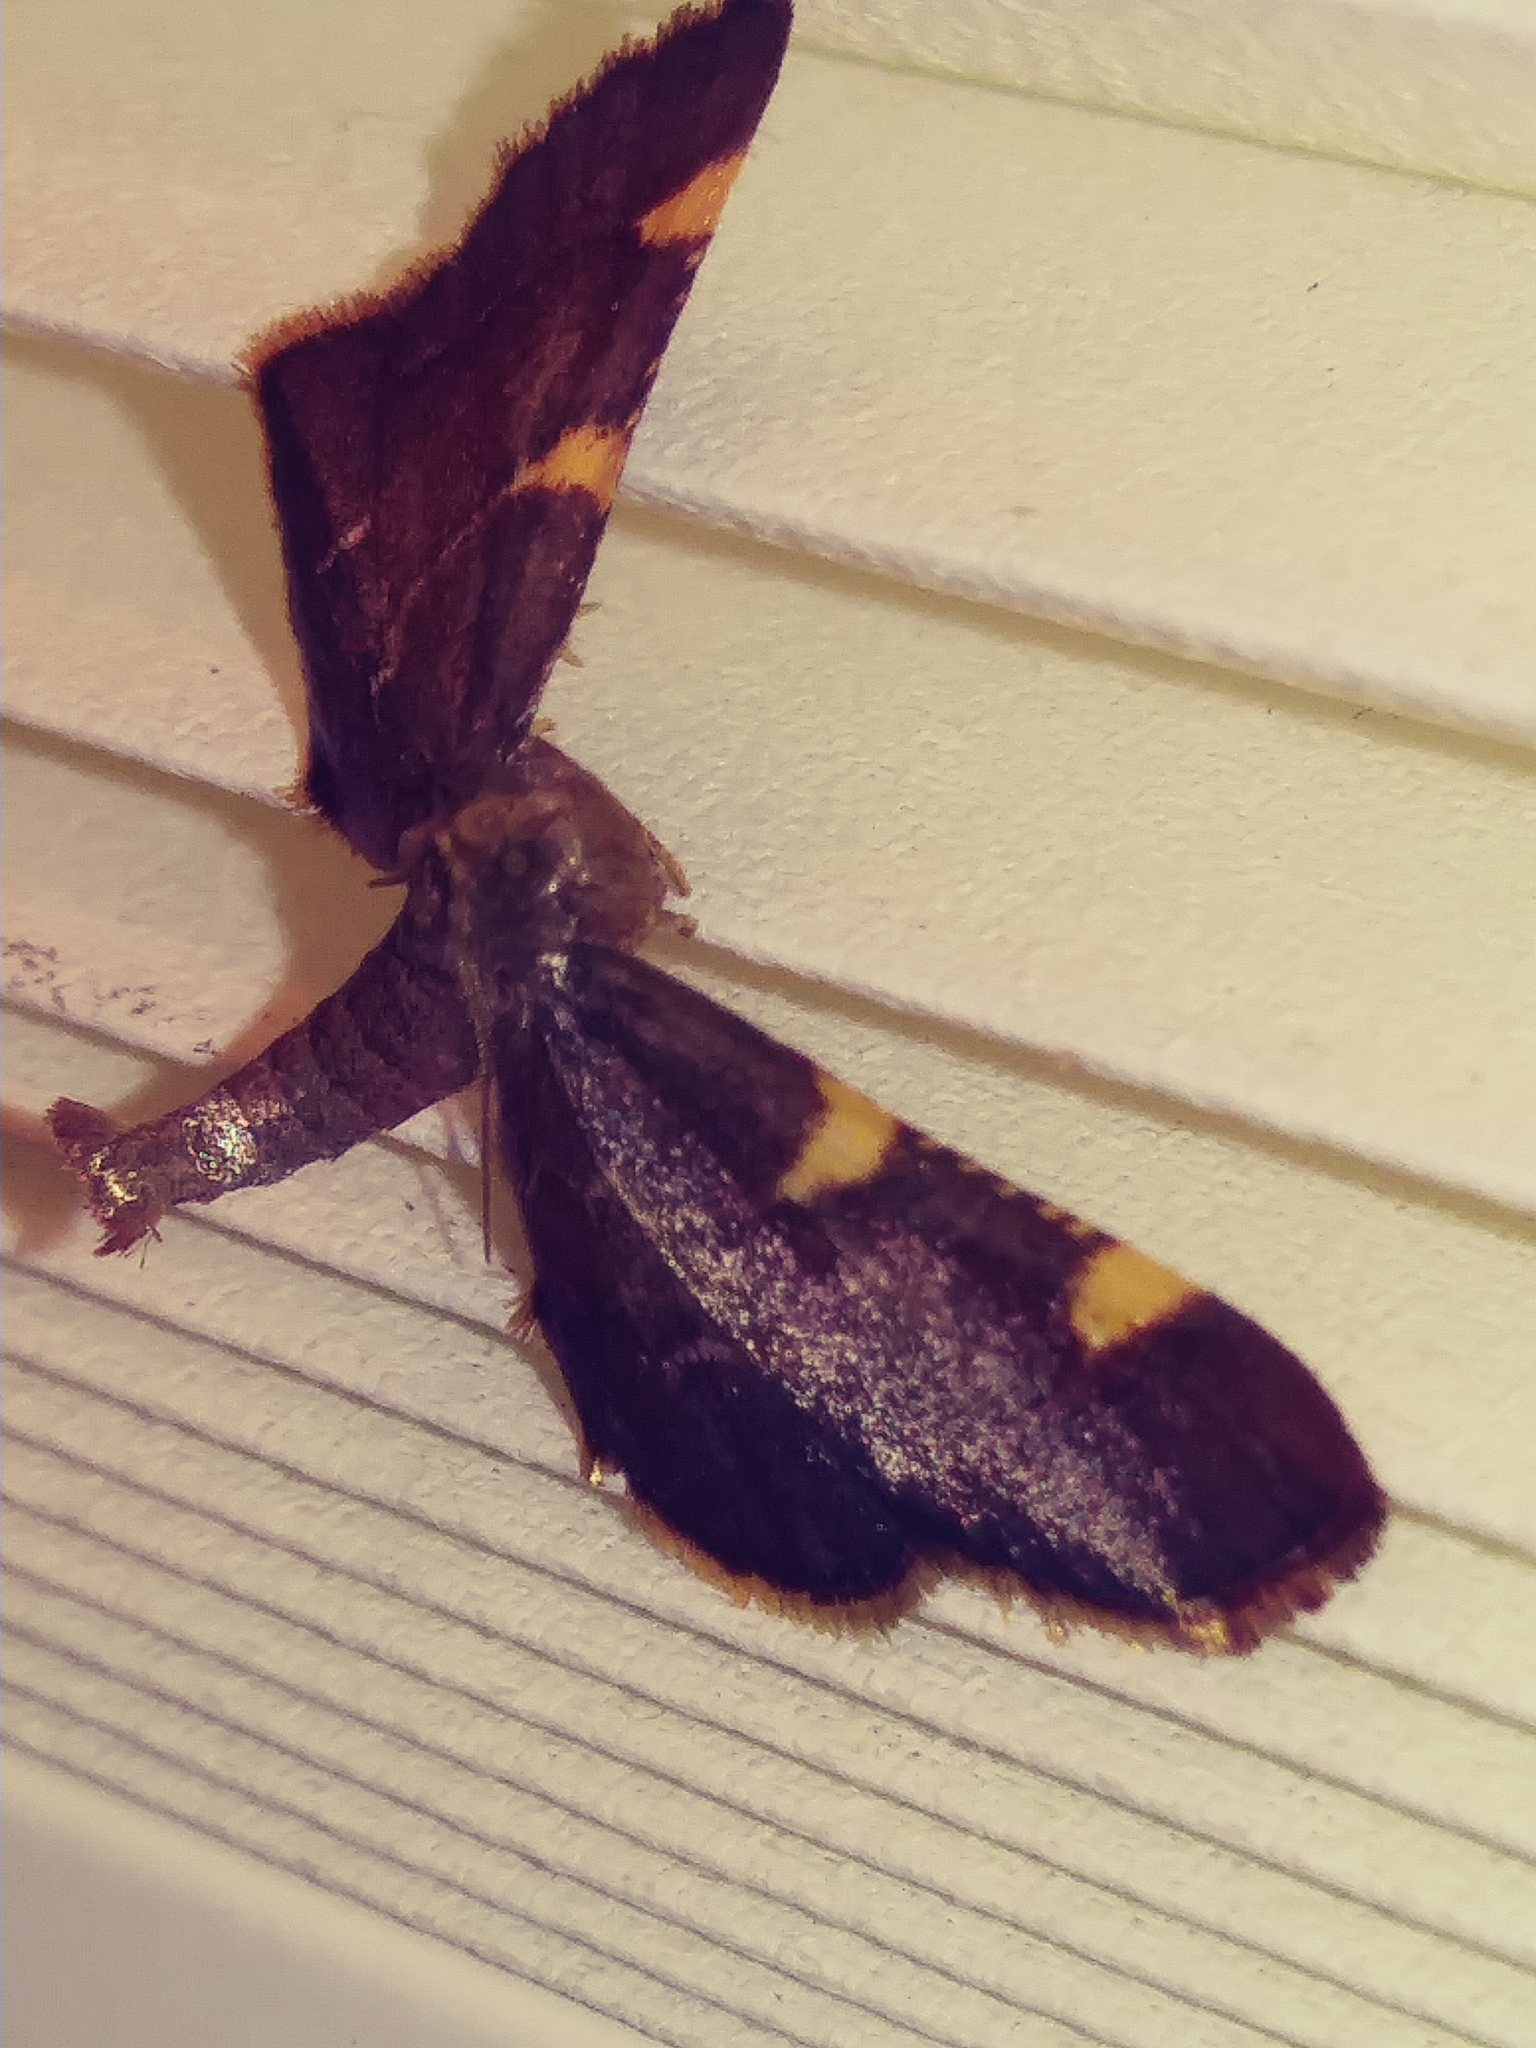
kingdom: Animalia
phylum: Arthropoda
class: Insecta
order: Lepidoptera
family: Pyralidae
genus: Hypsopygia
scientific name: Hypsopygia olinalis
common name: Yellow-fringed dolichomia moth
